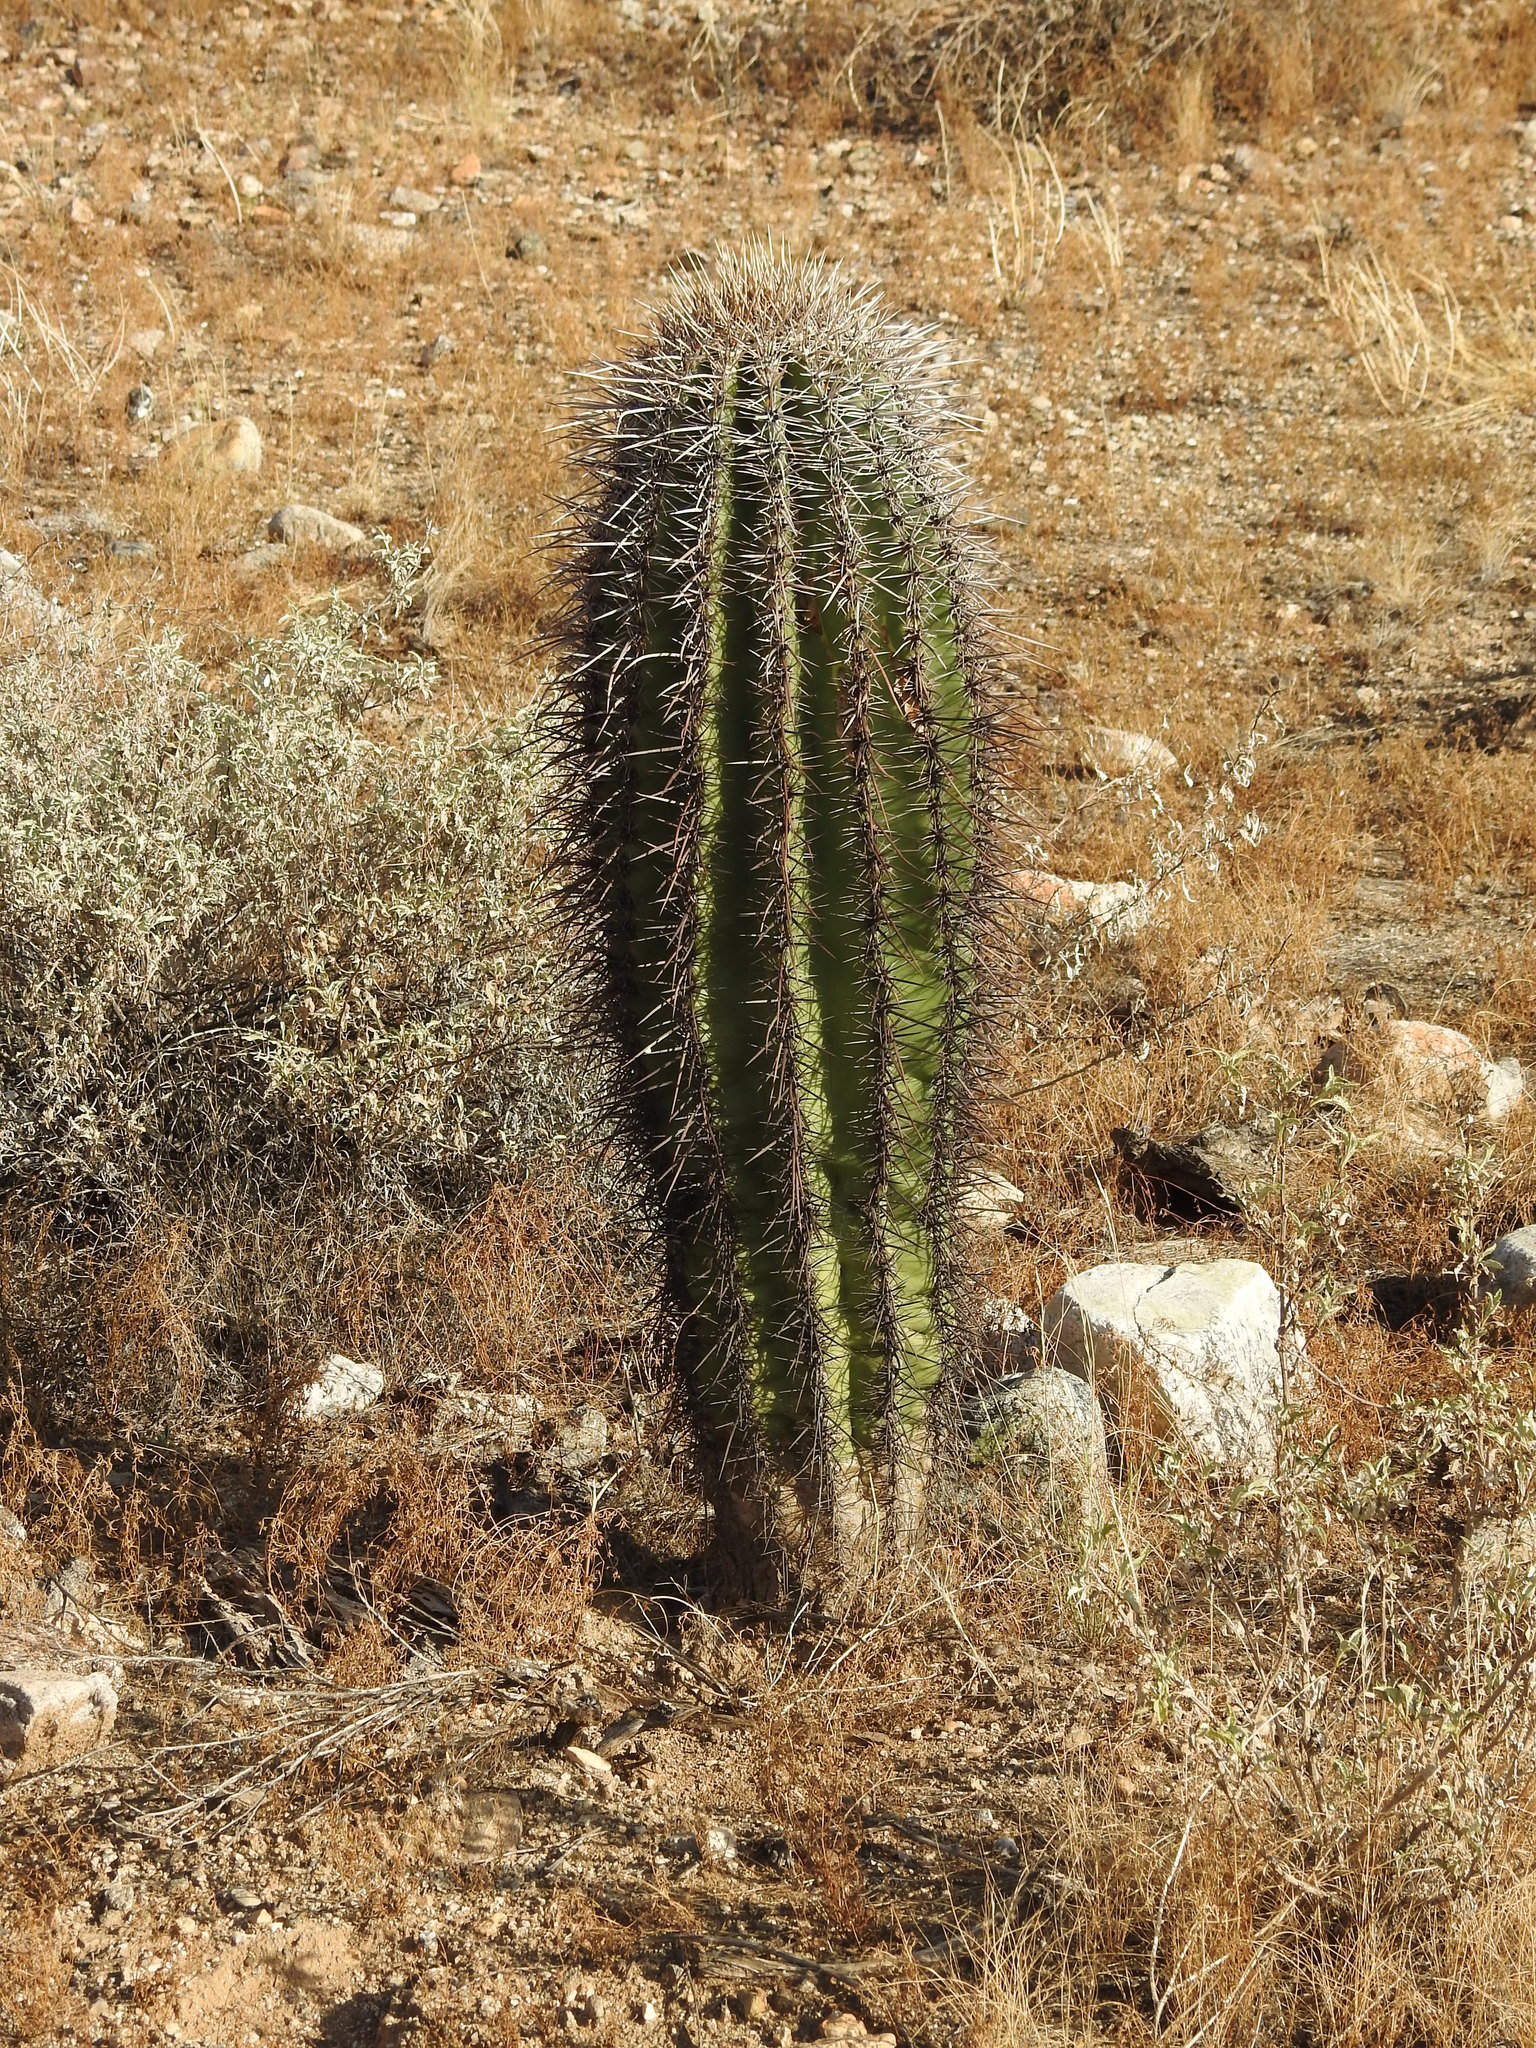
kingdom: Plantae
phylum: Tracheophyta
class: Magnoliopsida
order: Caryophyllales
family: Cactaceae
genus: Carnegiea
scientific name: Carnegiea gigantea
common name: Saguaro
